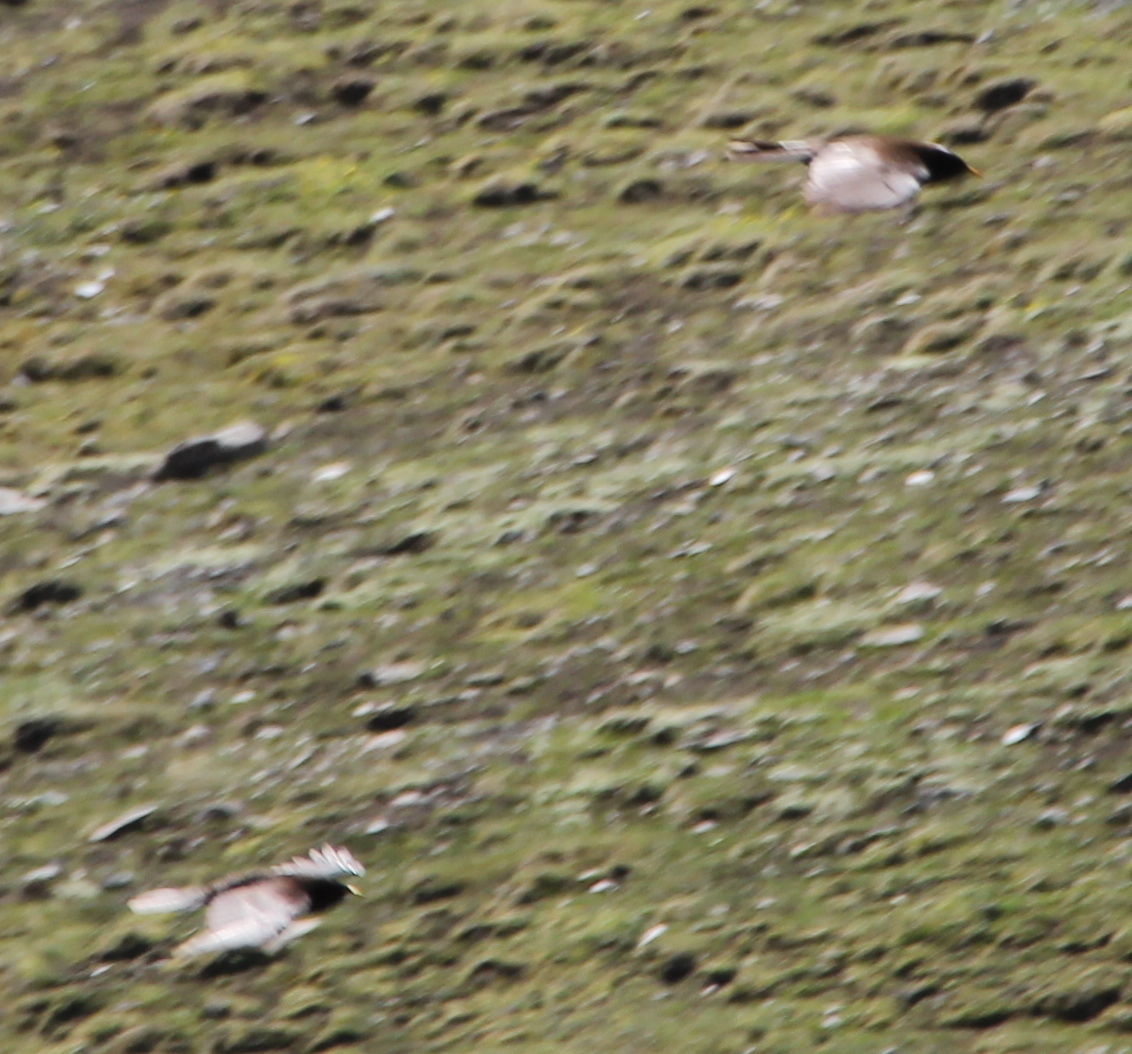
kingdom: Animalia
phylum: Chordata
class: Aves
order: Passeriformes
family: Corvidae
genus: Pyrrhocorax
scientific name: Pyrrhocorax graculus
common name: Alpine chough
